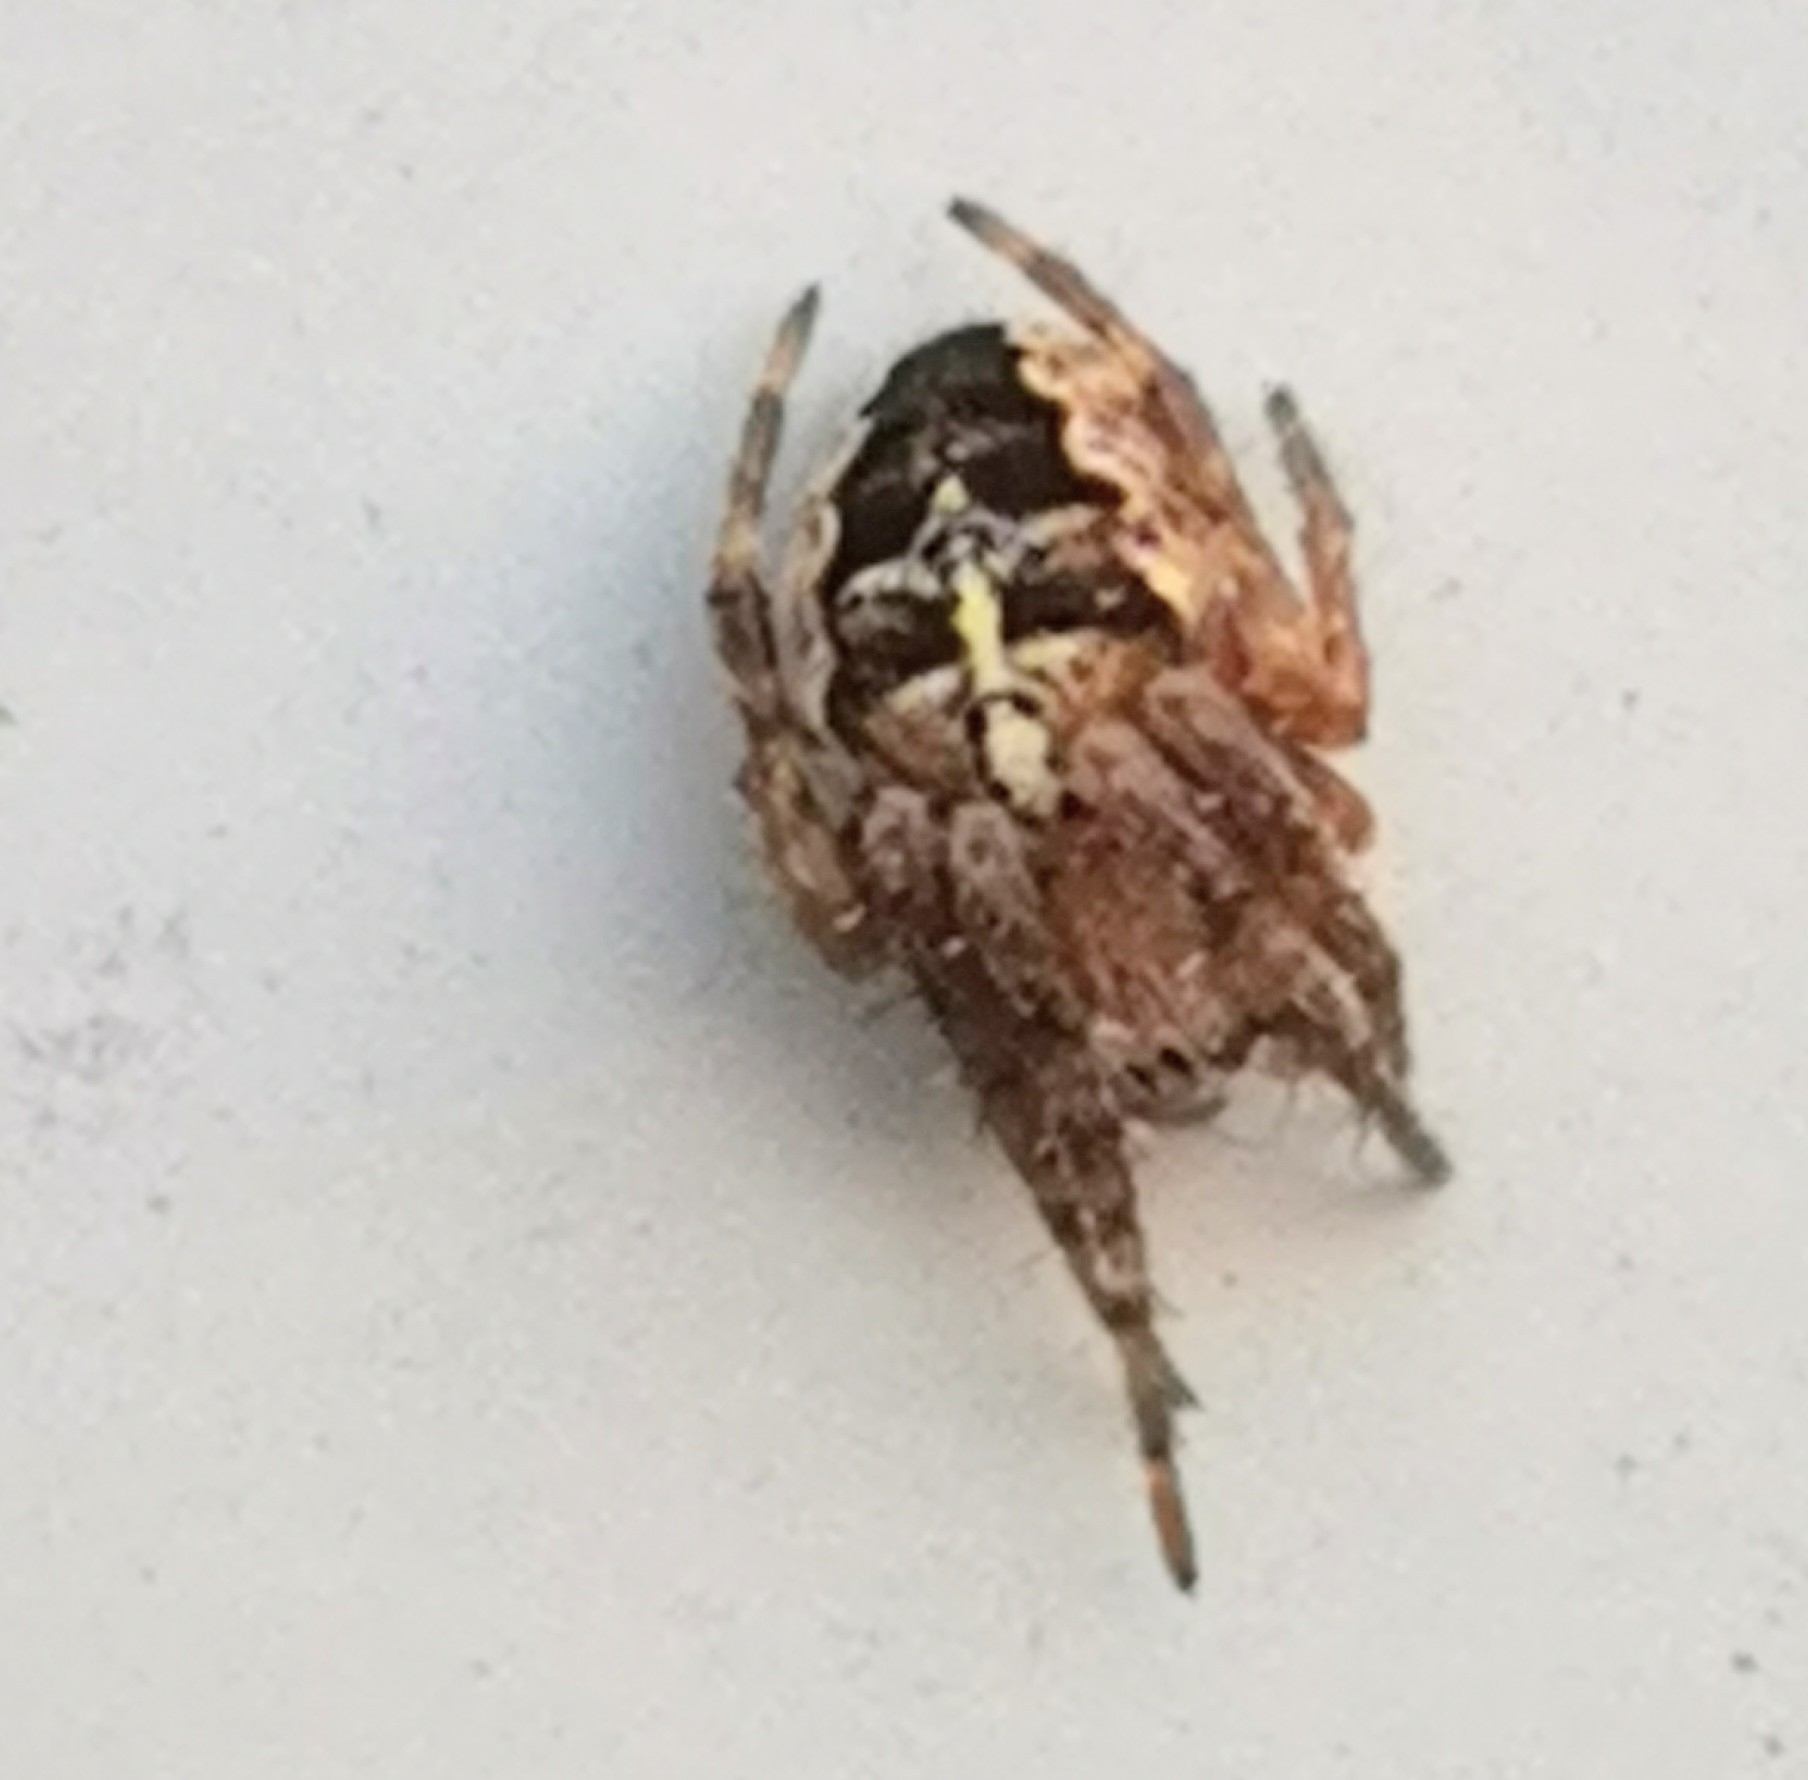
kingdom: Animalia
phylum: Arthropoda
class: Arachnida
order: Araneae
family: Araneidae
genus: Araneus
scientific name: Araneus diadematus
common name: Cross orbweaver
